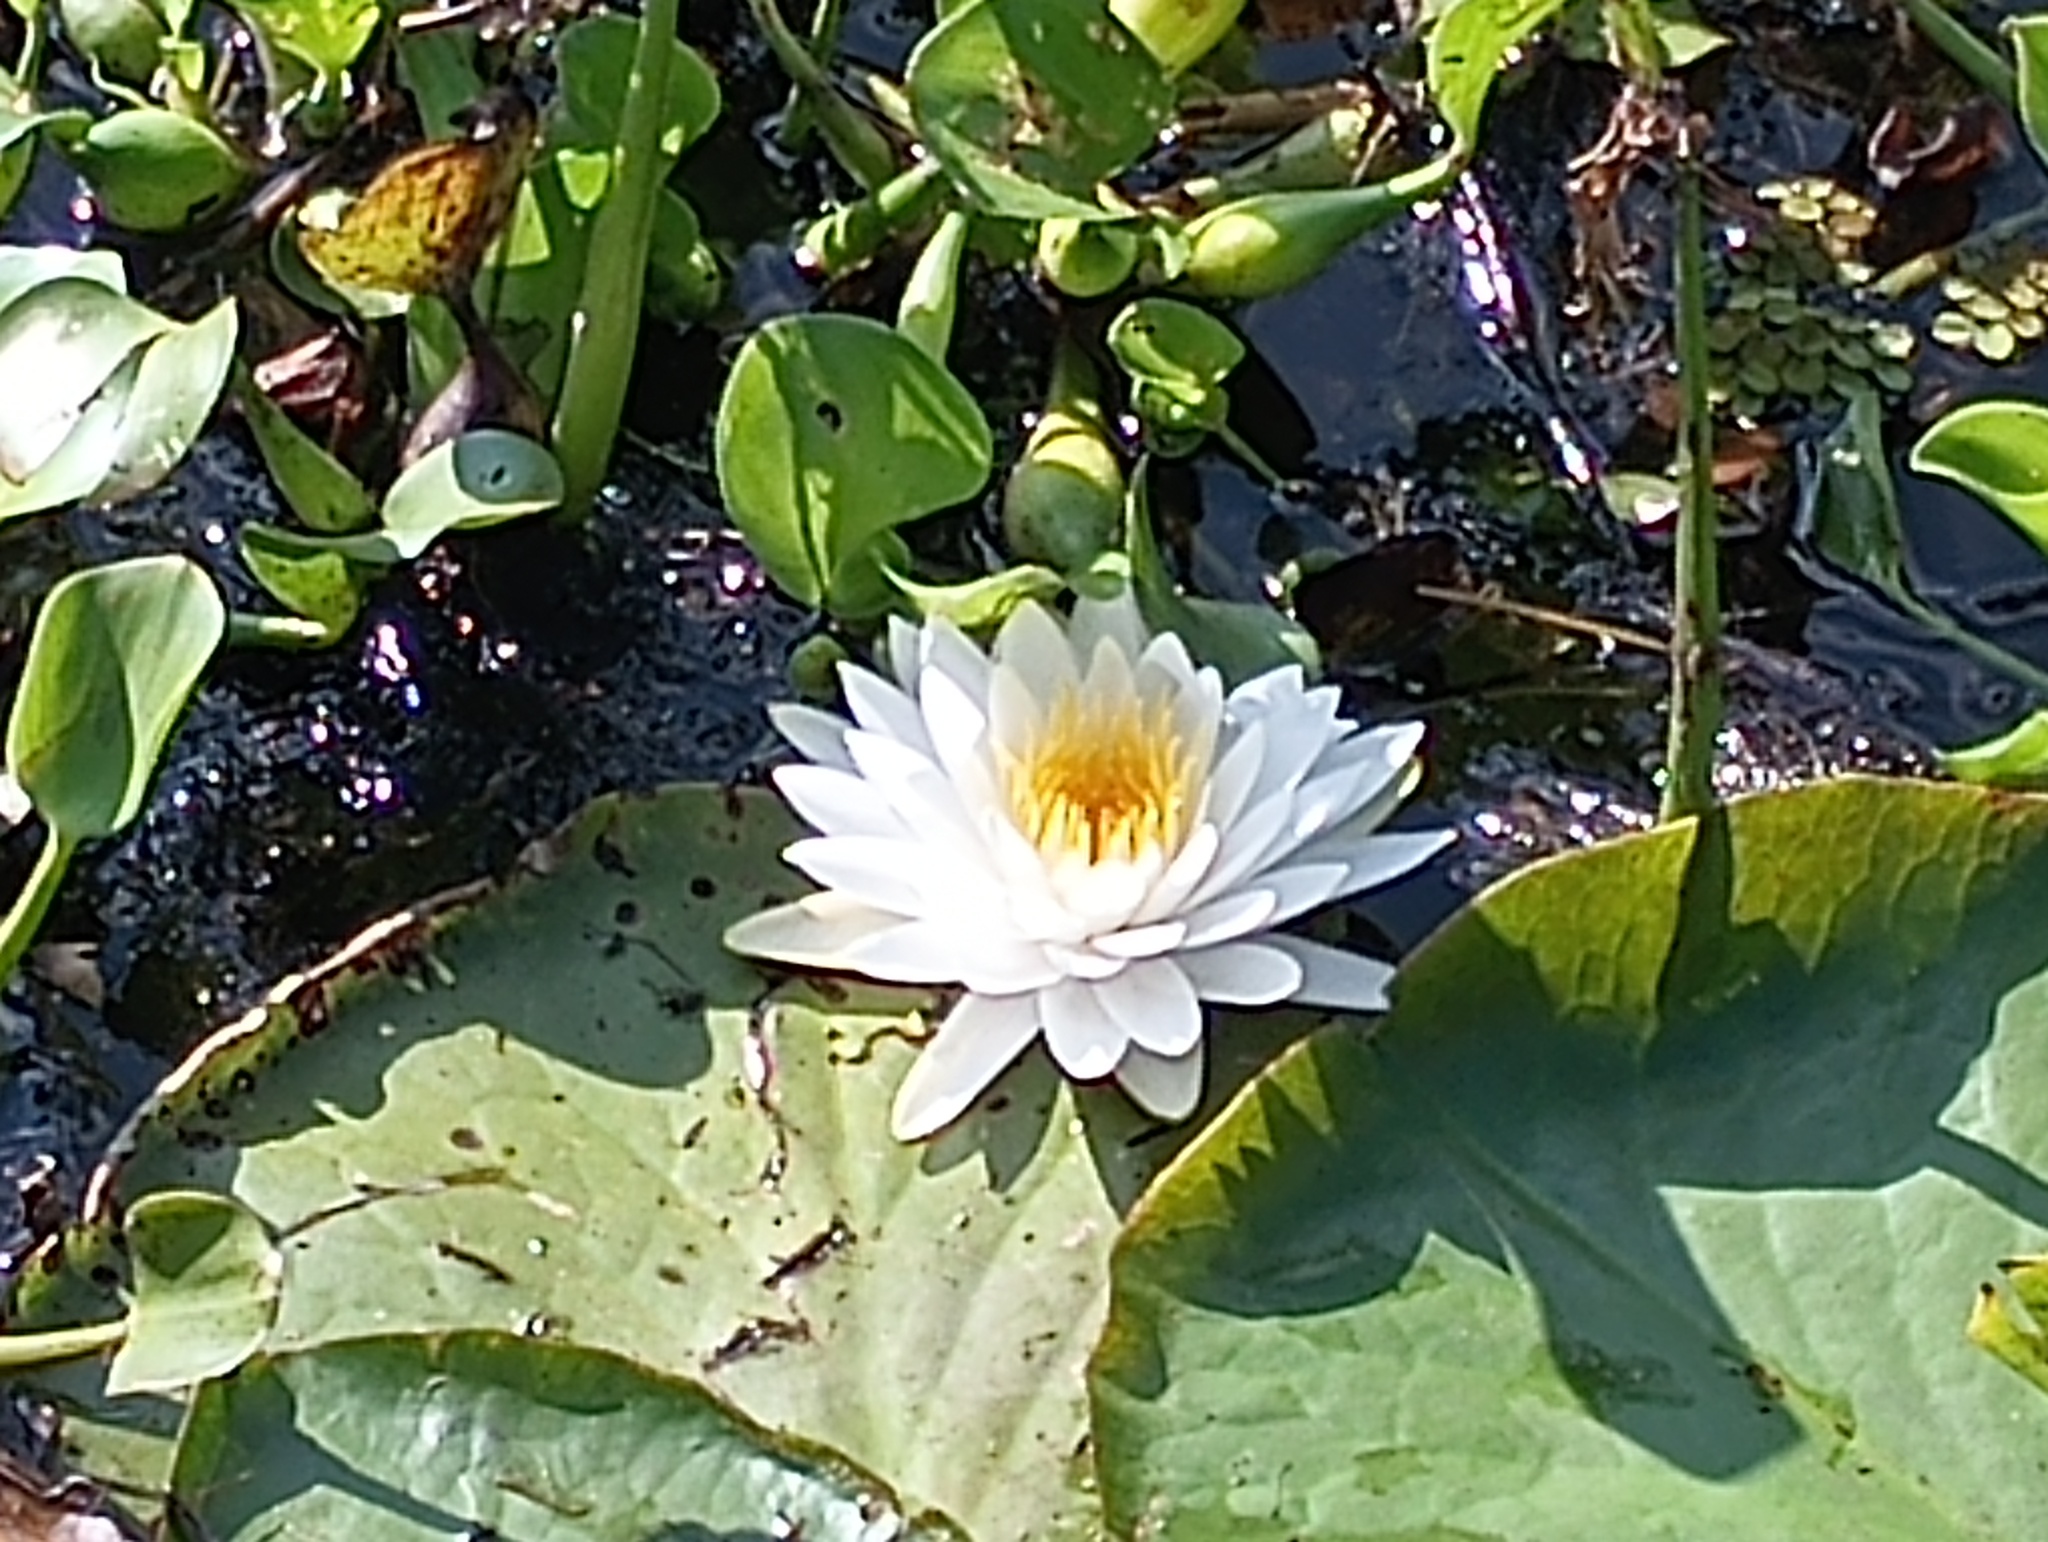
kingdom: Plantae
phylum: Tracheophyta
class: Magnoliopsida
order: Nymphaeales
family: Nymphaeaceae
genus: Nymphaea
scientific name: Nymphaea odorata
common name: Fragrant water-lily
